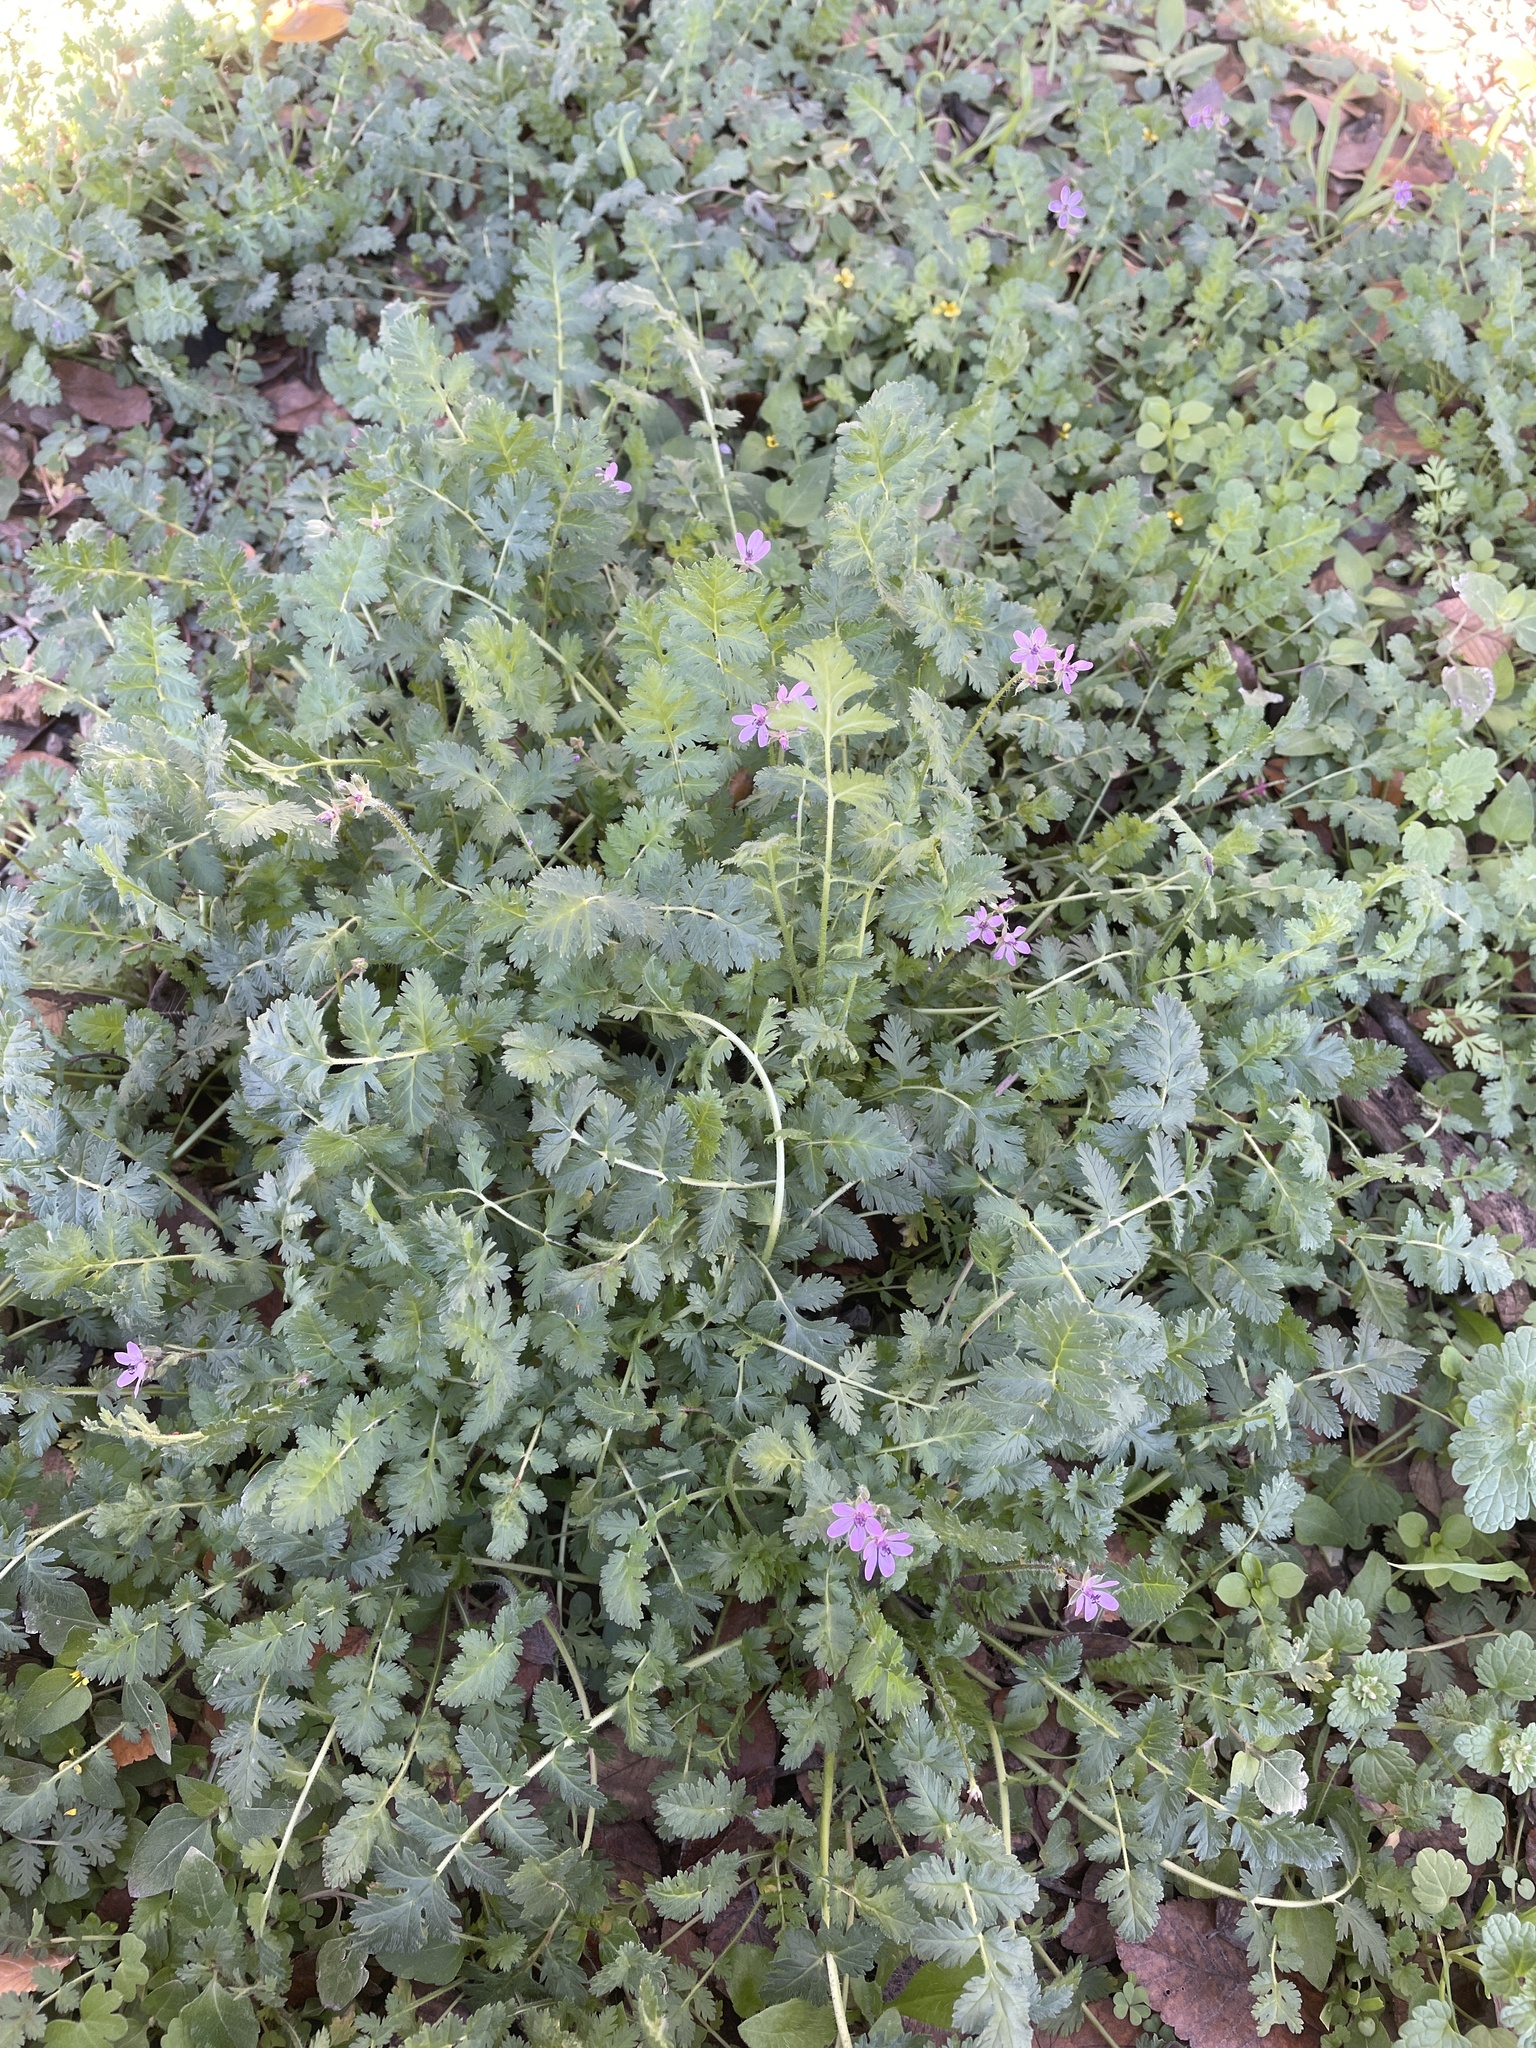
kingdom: Plantae
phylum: Tracheophyta
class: Magnoliopsida
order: Geraniales
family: Geraniaceae
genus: Erodium
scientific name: Erodium cicutarium
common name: Common stork's-bill
